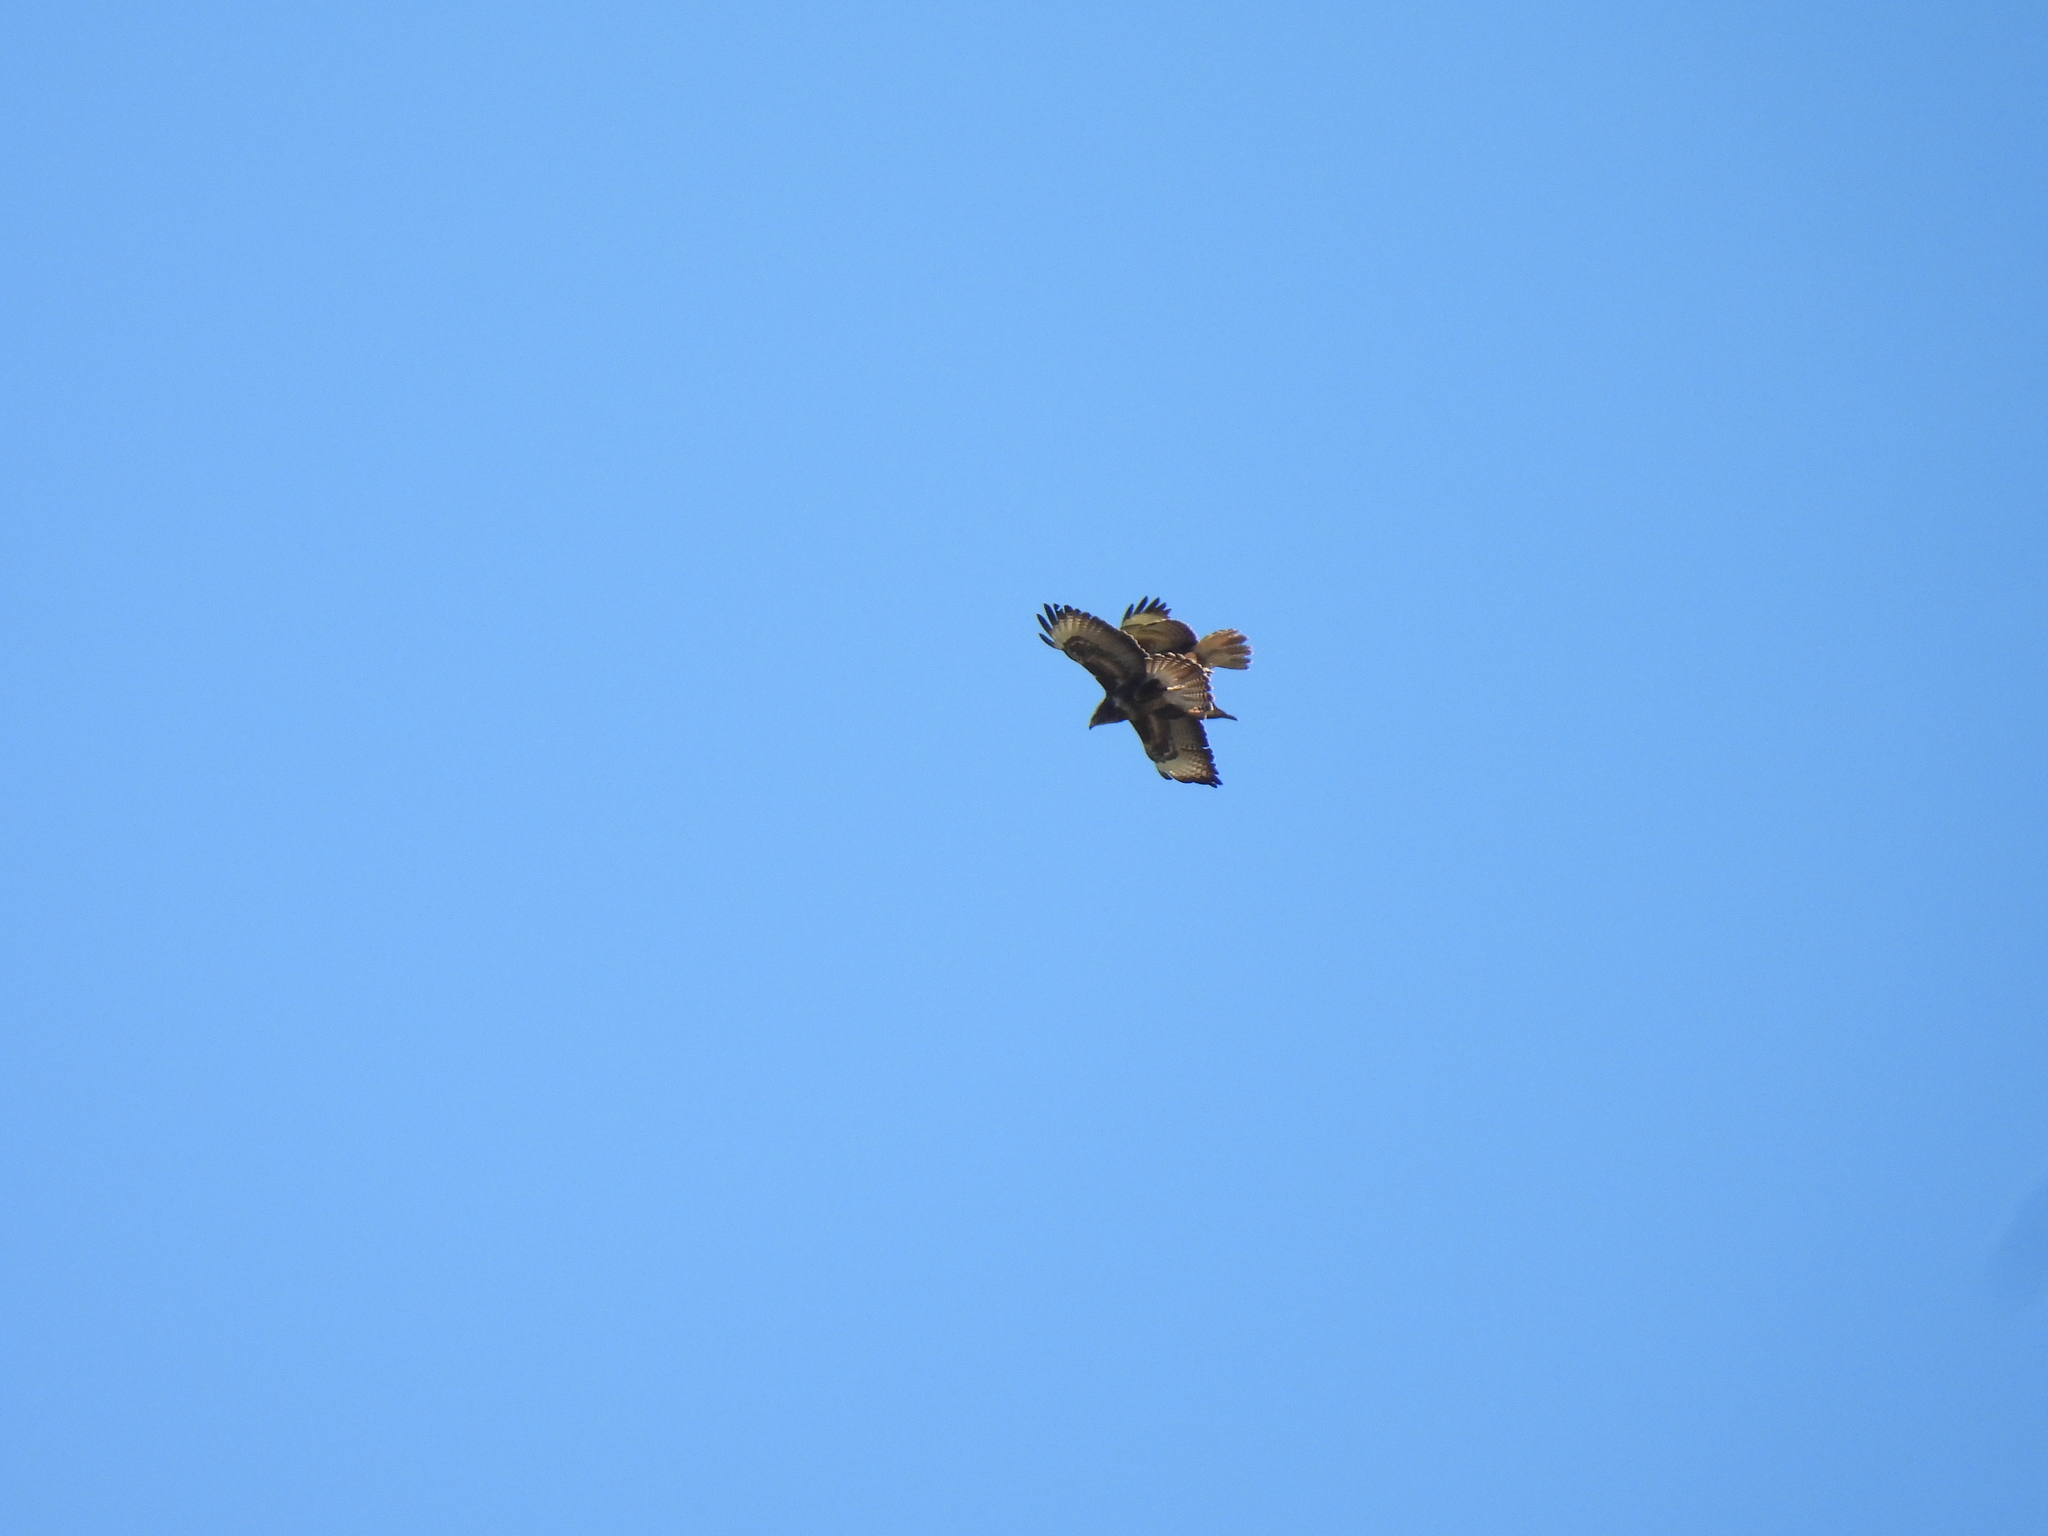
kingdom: Animalia
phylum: Chordata
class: Aves
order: Accipitriformes
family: Accipitridae
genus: Buteo
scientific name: Buteo buteo
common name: Common buzzard
